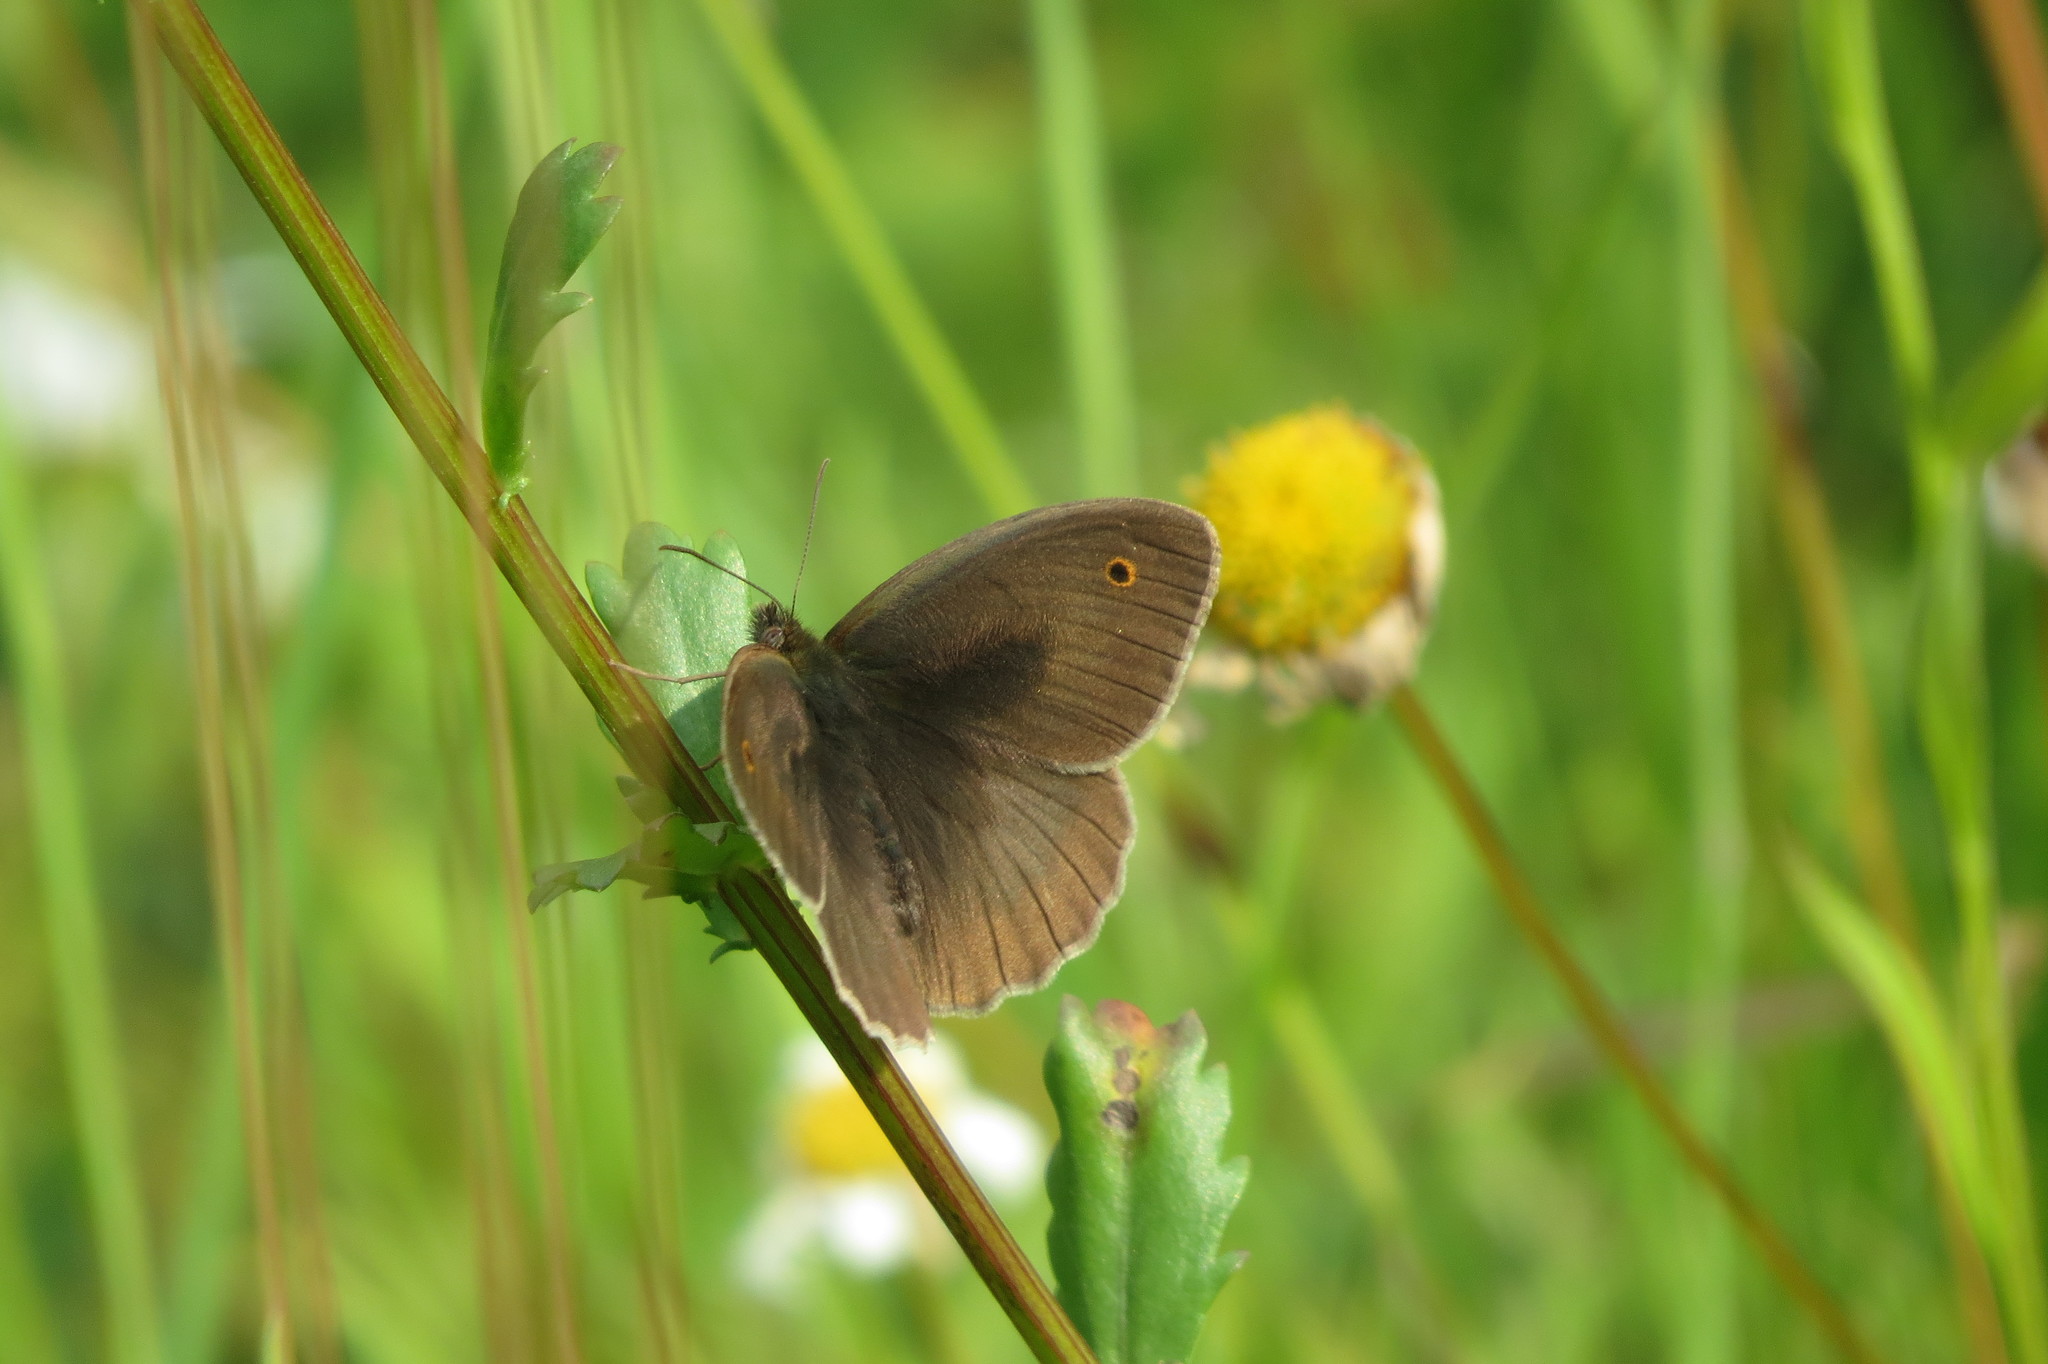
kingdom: Animalia
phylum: Arthropoda
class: Insecta
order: Lepidoptera
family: Nymphalidae
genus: Maniola
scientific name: Maniola jurtina
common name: Meadow brown
